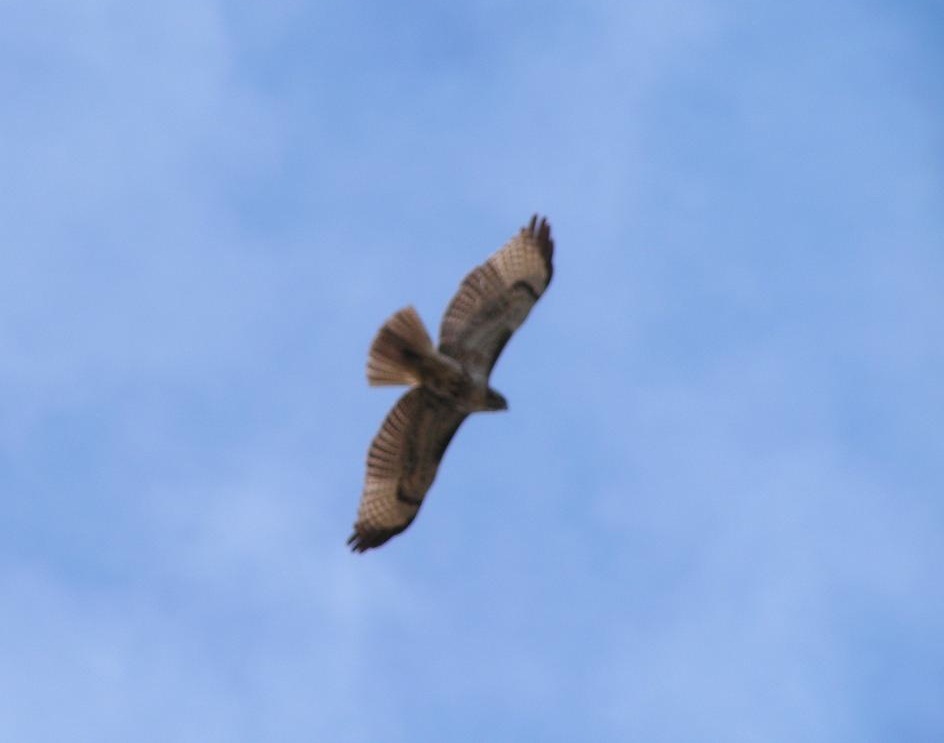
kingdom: Animalia
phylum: Chordata
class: Aves
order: Accipitriformes
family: Accipitridae
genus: Buteo
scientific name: Buteo jamaicensis
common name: Red-tailed hawk
